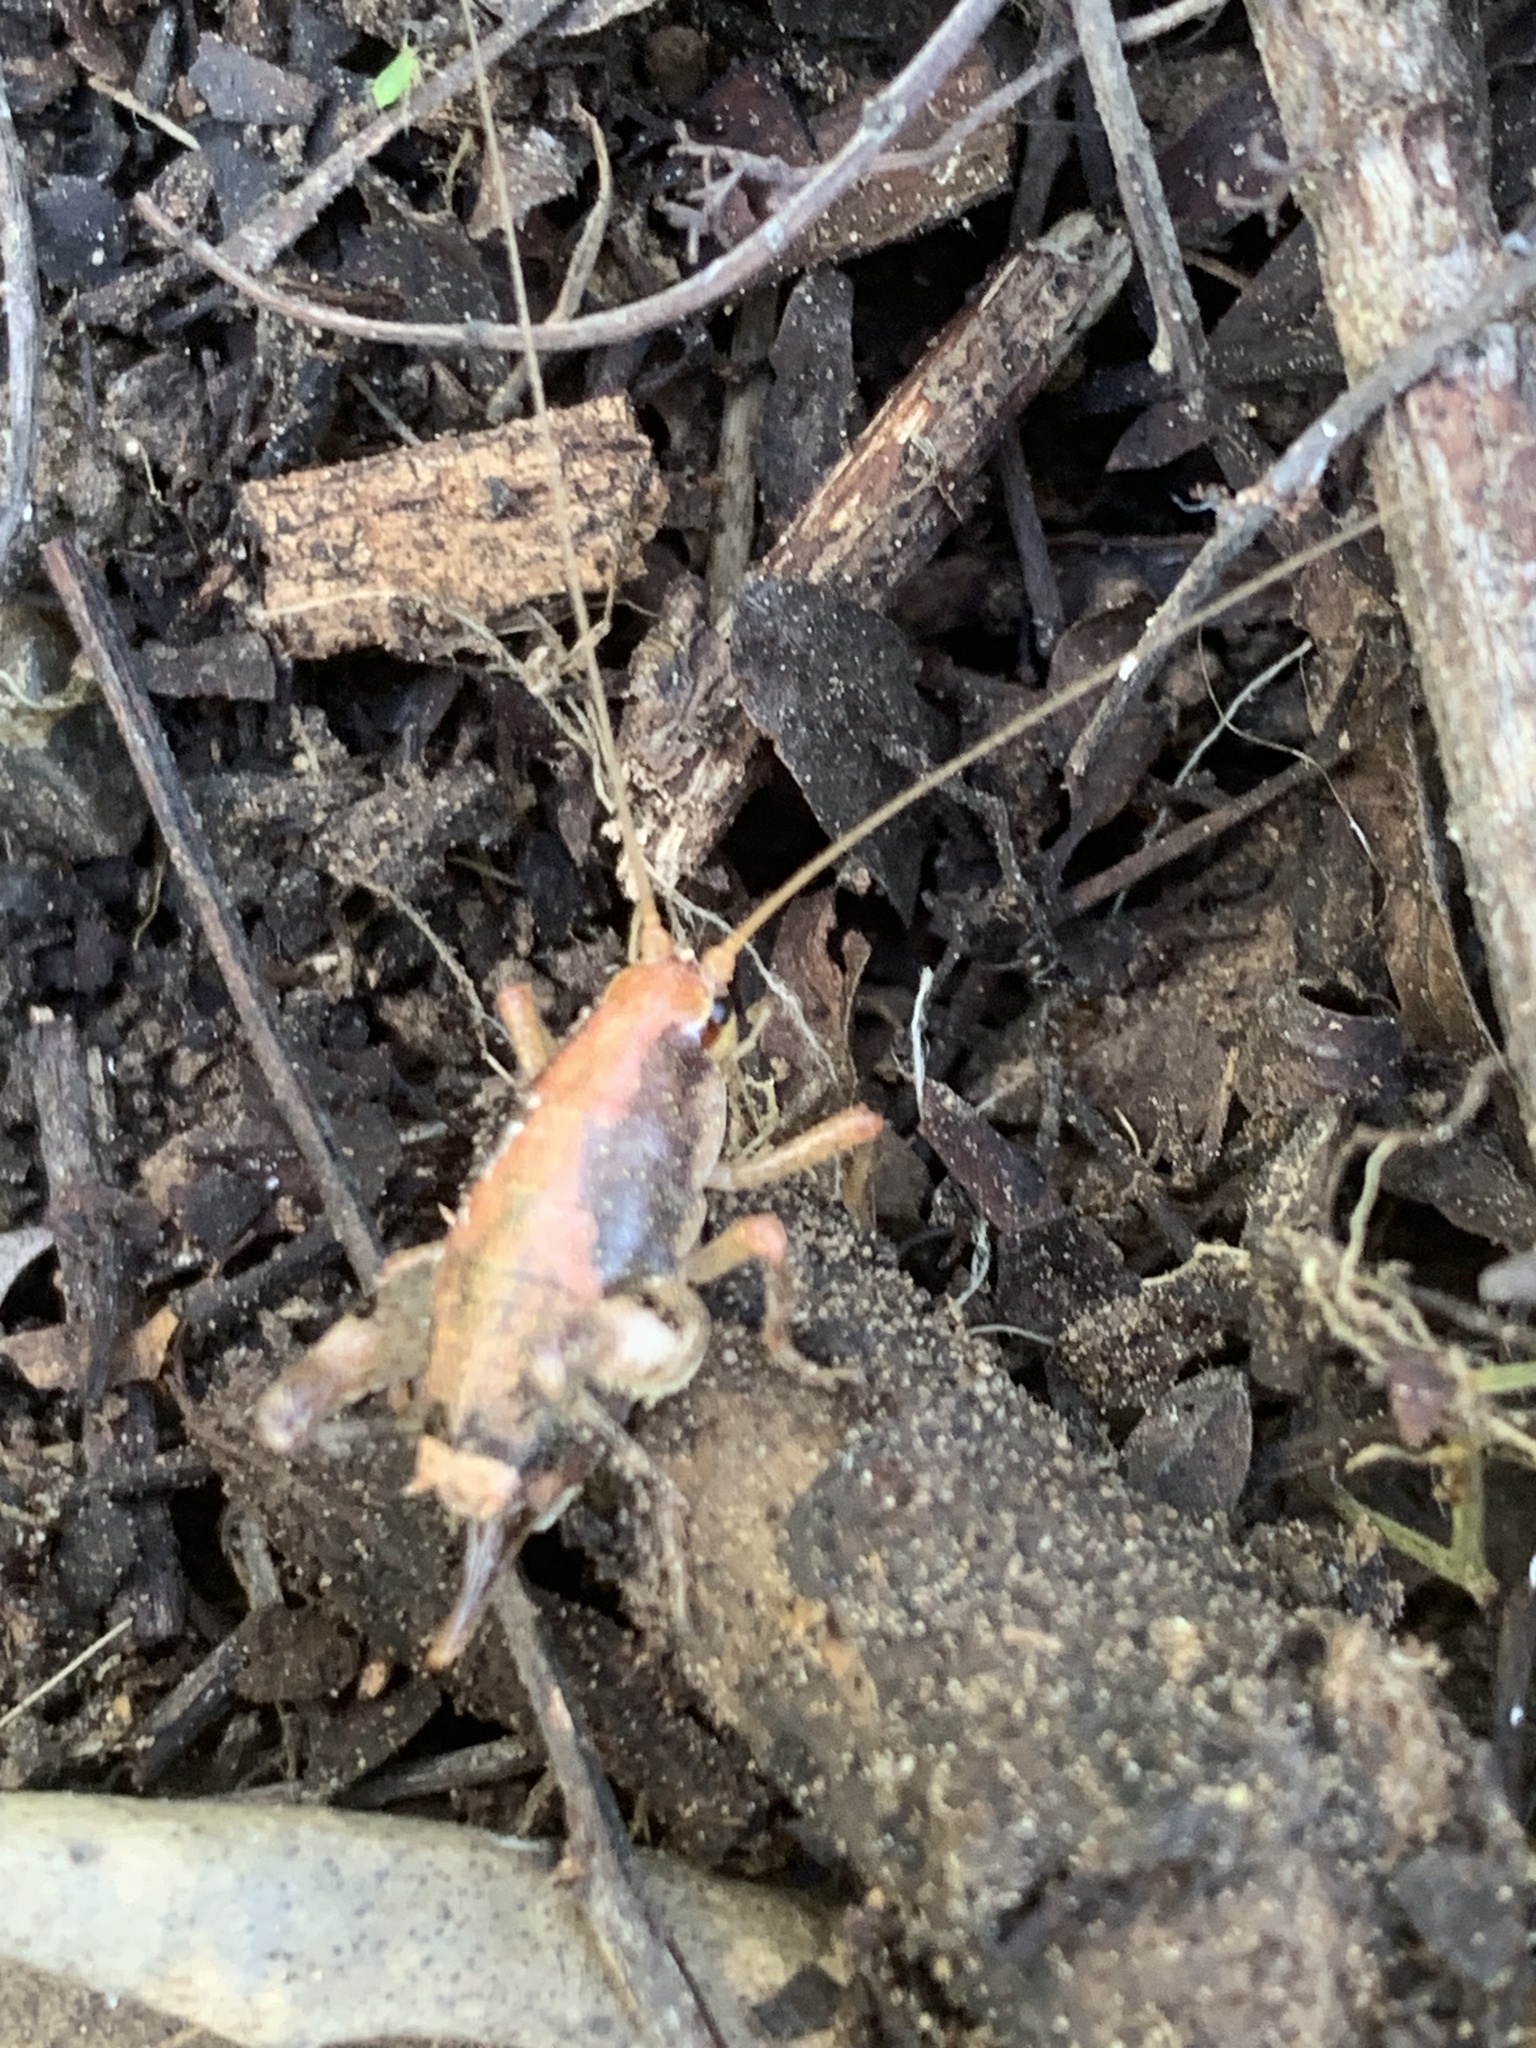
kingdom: Animalia
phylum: Arthropoda
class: Insecta
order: Orthoptera
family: Rhaphidophoridae
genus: Gammarotettix
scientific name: Gammarotettix genitalis
